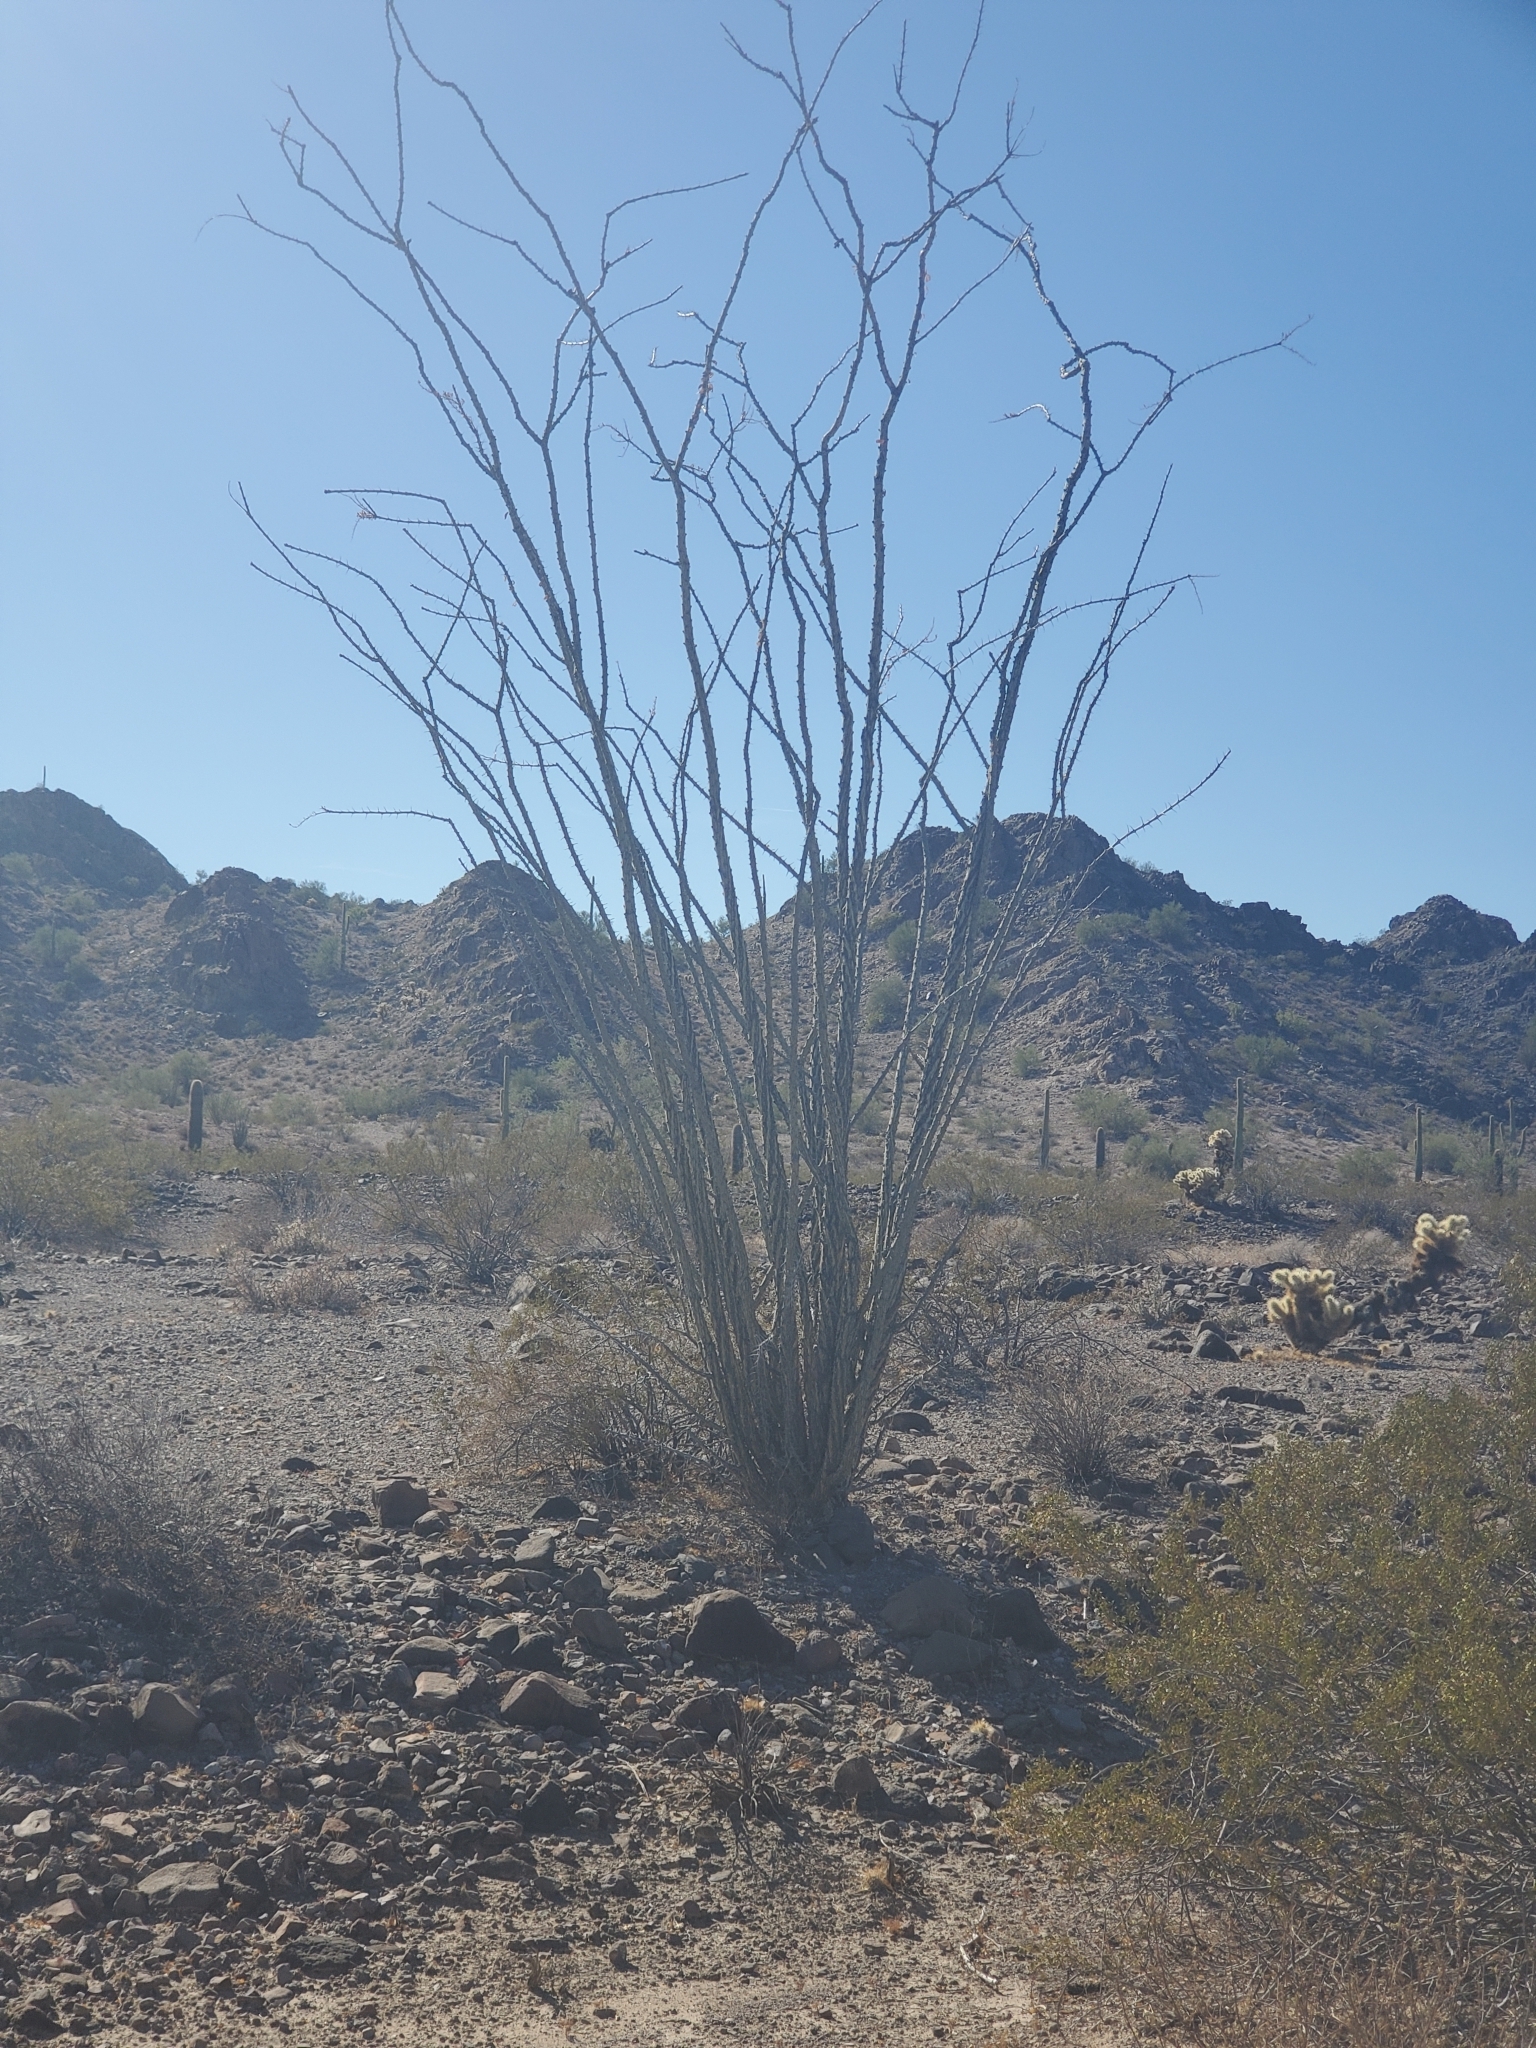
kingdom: Plantae
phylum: Tracheophyta
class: Magnoliopsida
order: Ericales
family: Fouquieriaceae
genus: Fouquieria
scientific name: Fouquieria splendens
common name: Vine-cactus
